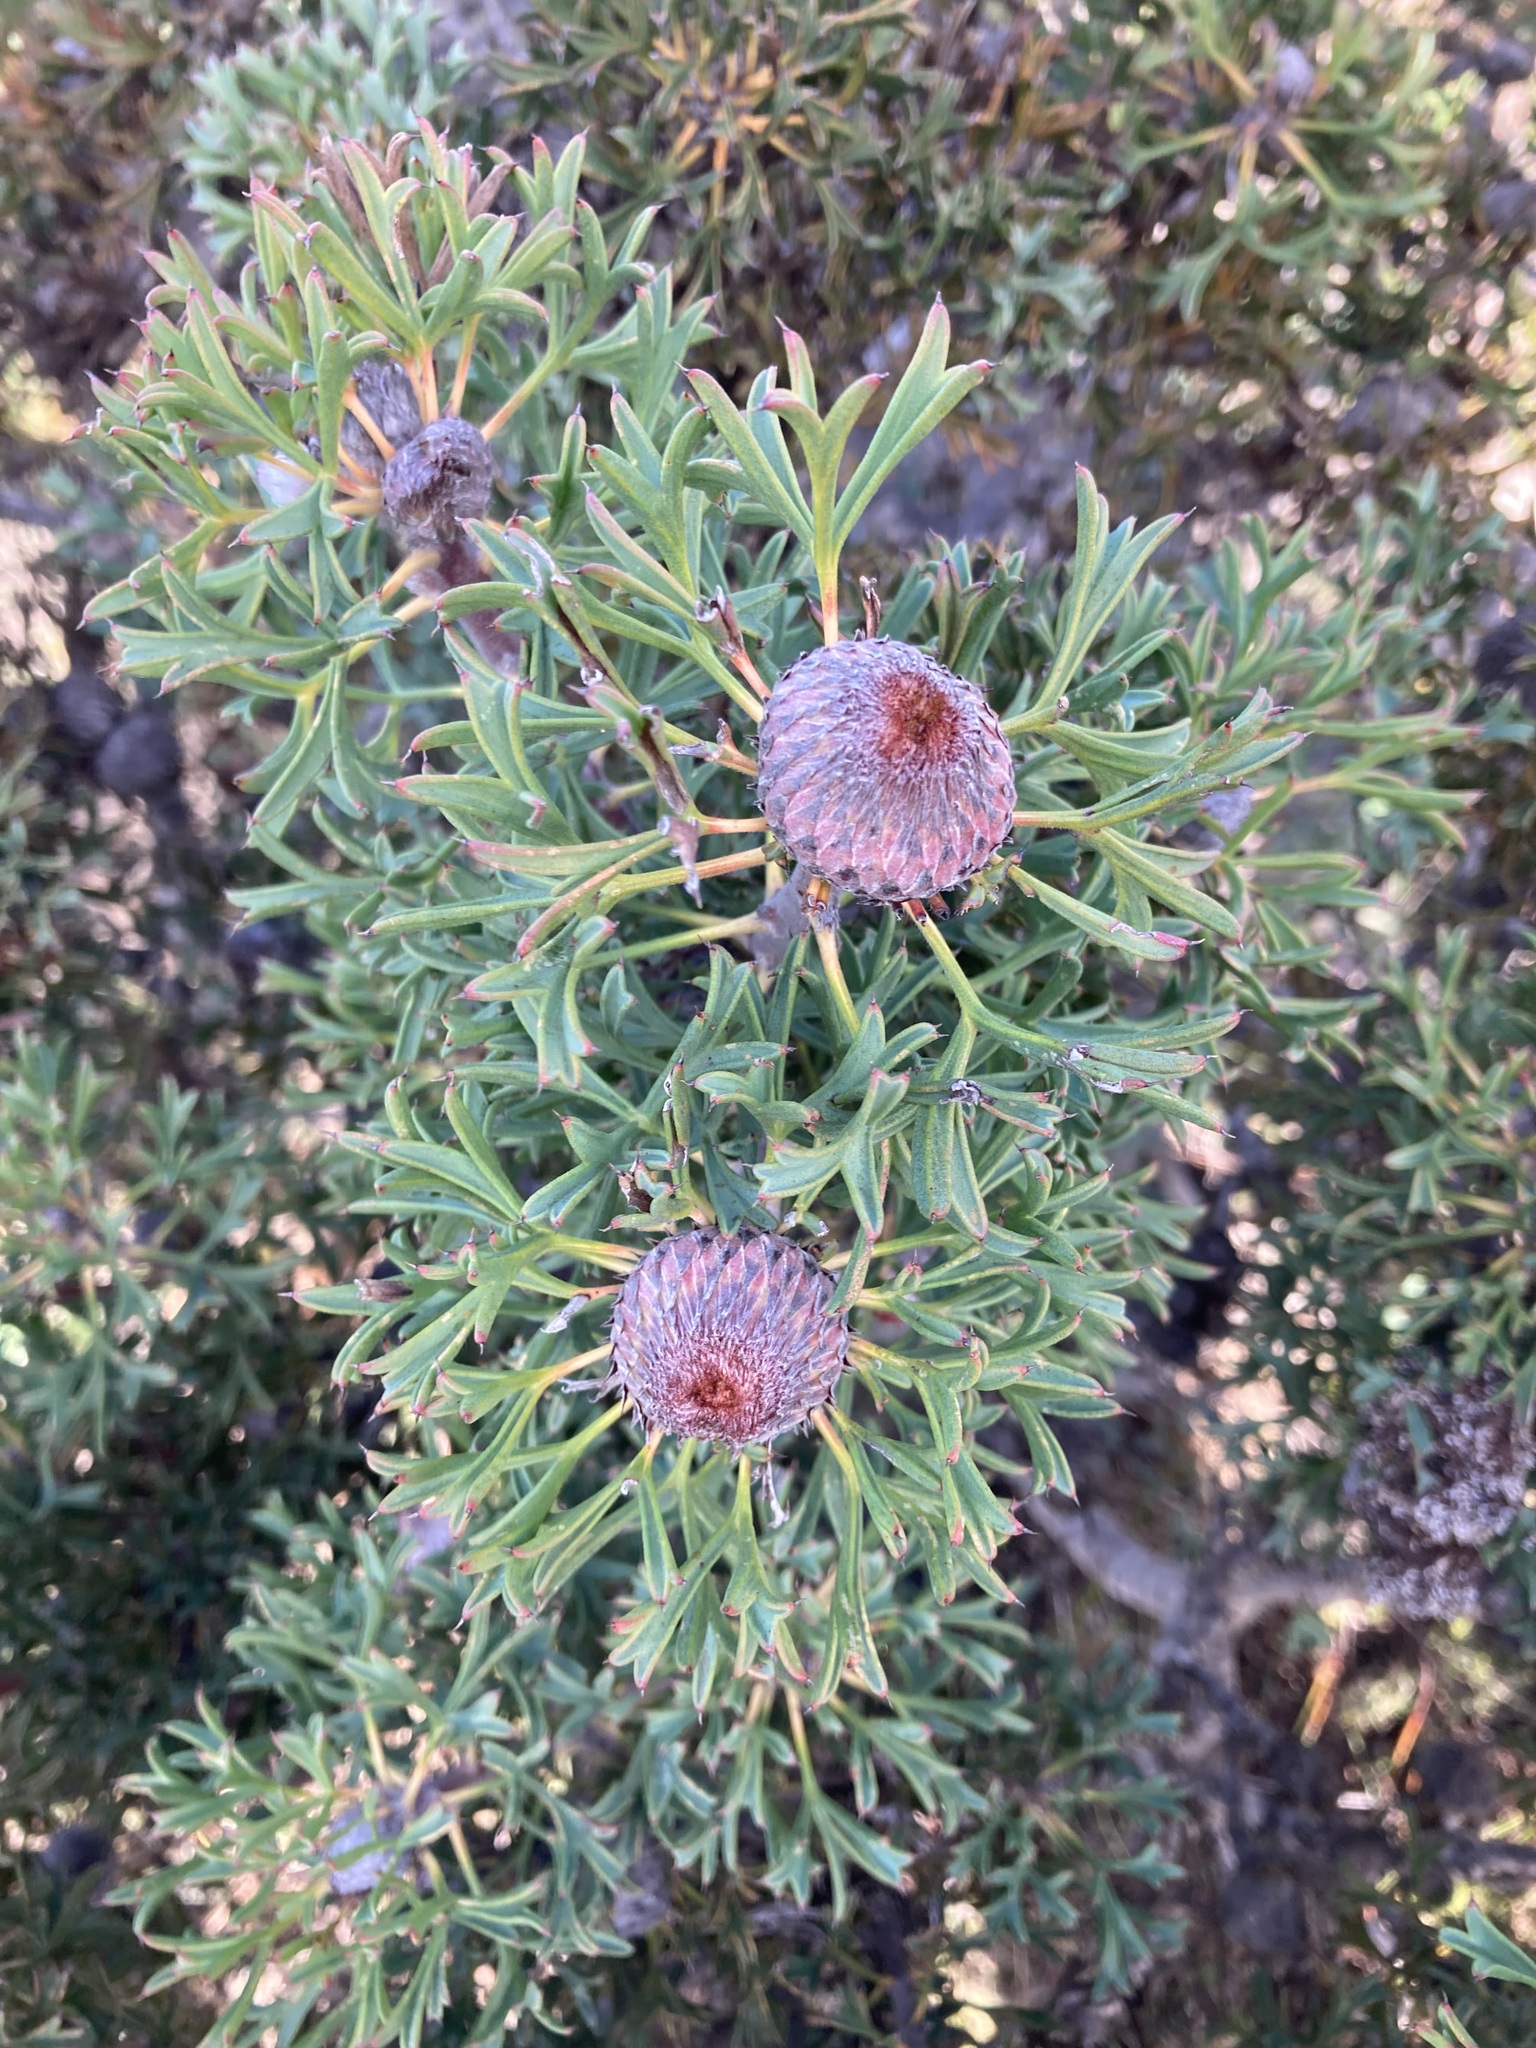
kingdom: Plantae
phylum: Tracheophyta
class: Magnoliopsida
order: Proteales
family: Proteaceae
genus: Isopogon
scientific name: Isopogon dubius
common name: Pincushion-coneflower
